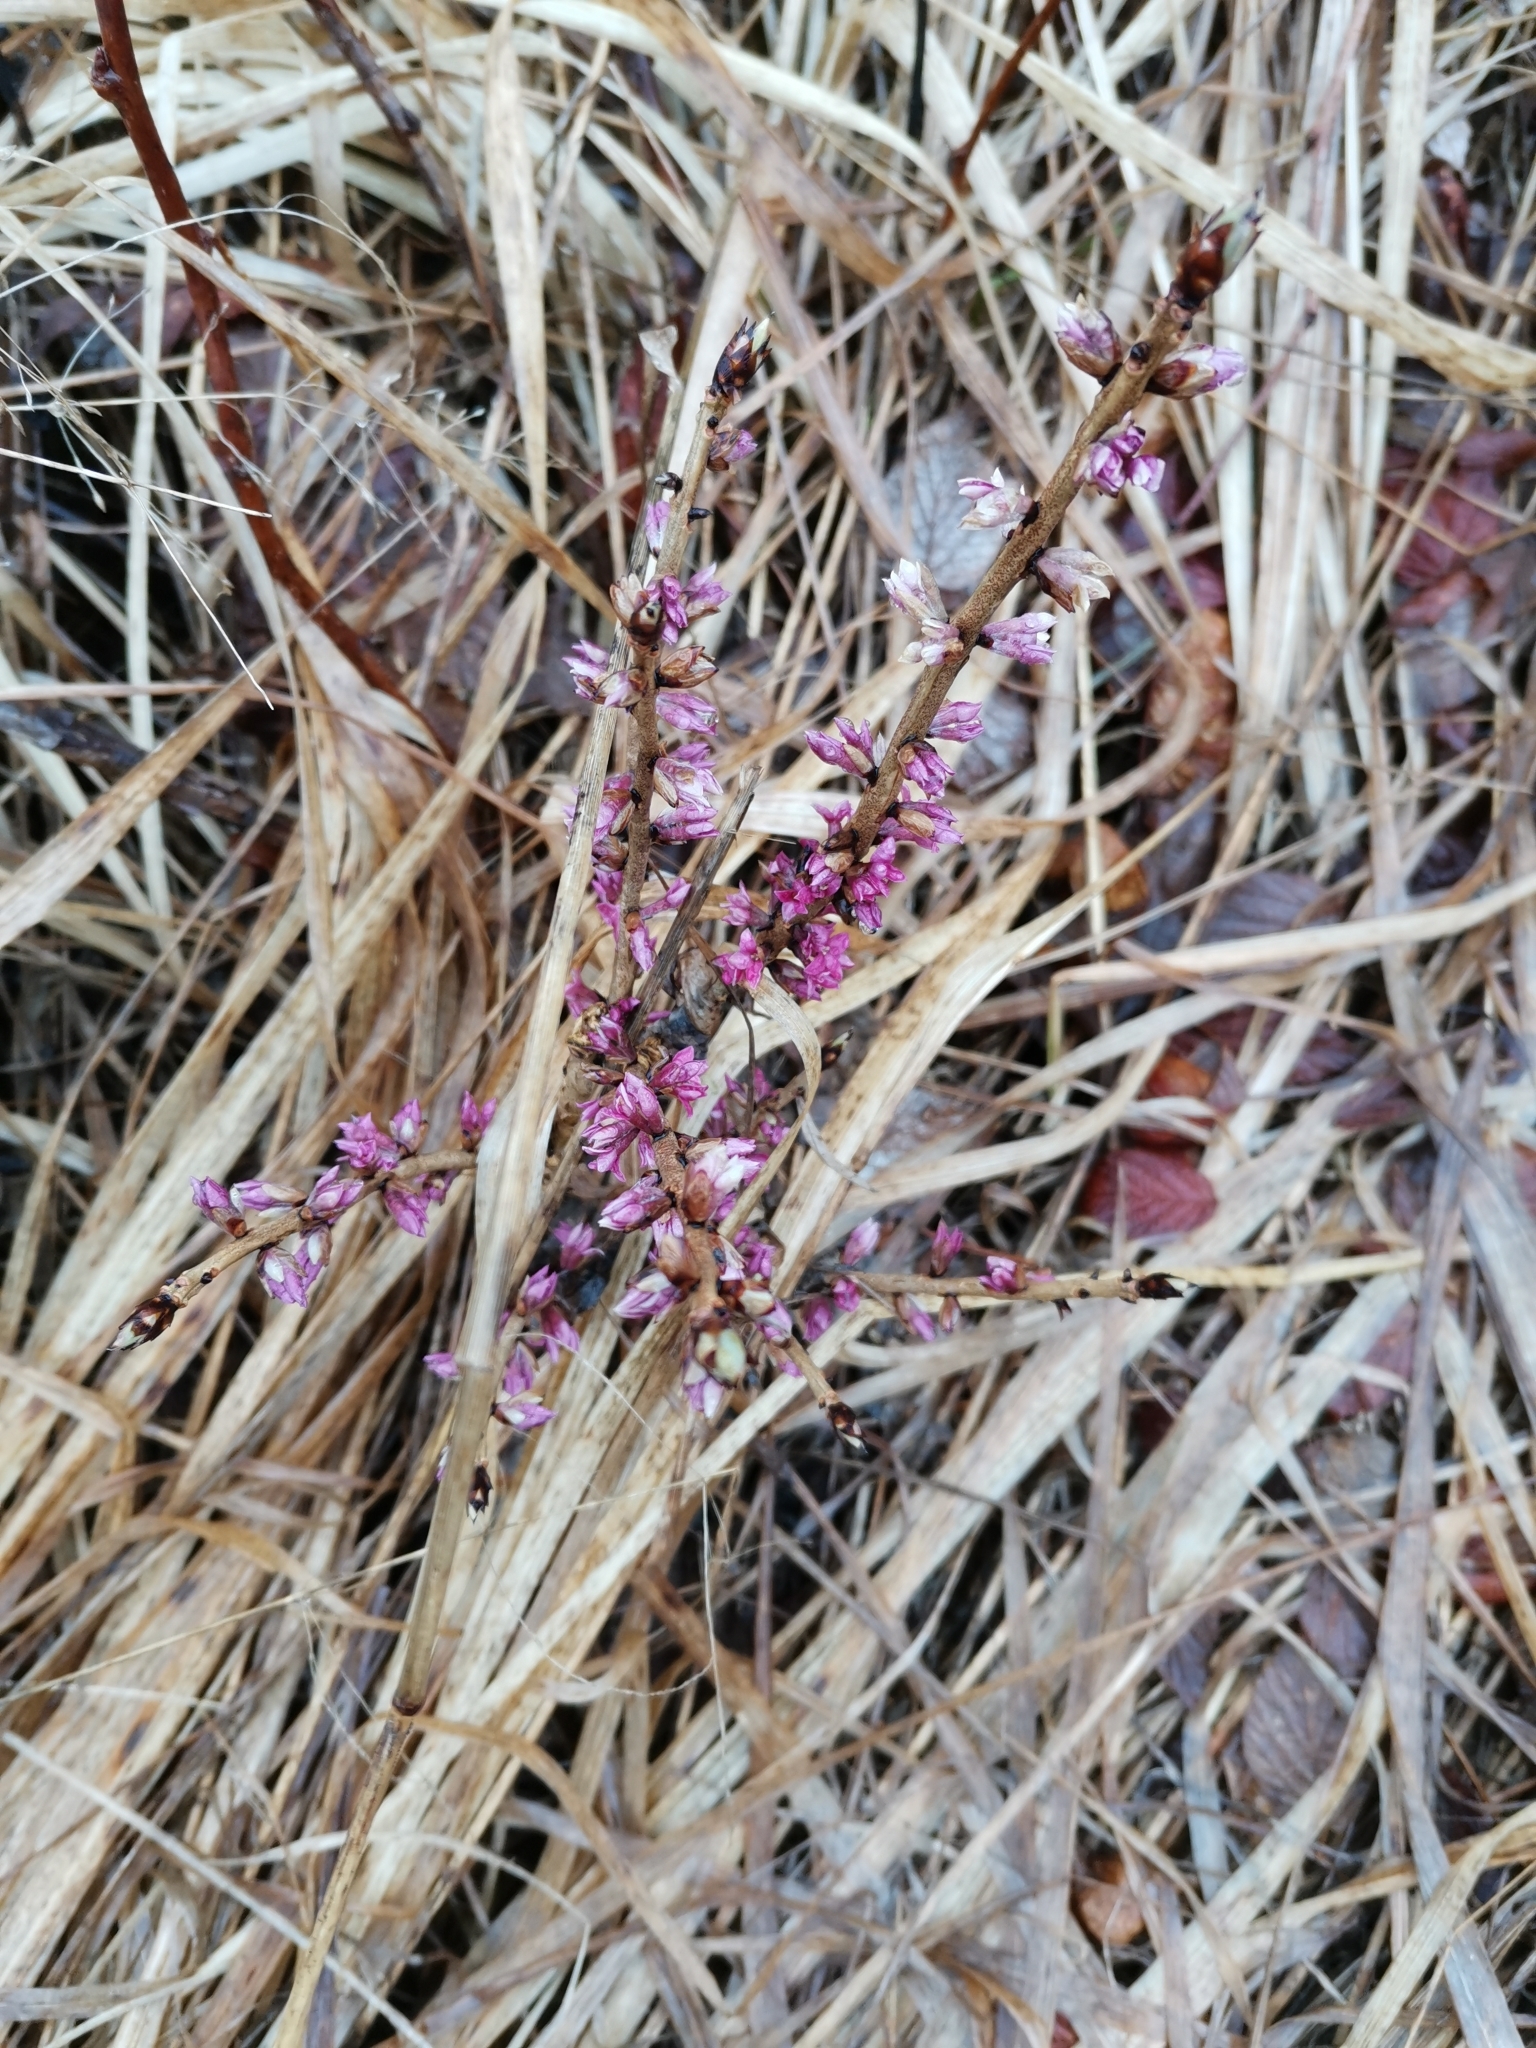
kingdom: Plantae
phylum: Tracheophyta
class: Magnoliopsida
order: Malvales
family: Thymelaeaceae
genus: Daphne
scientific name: Daphne mezereum
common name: Mezereon
